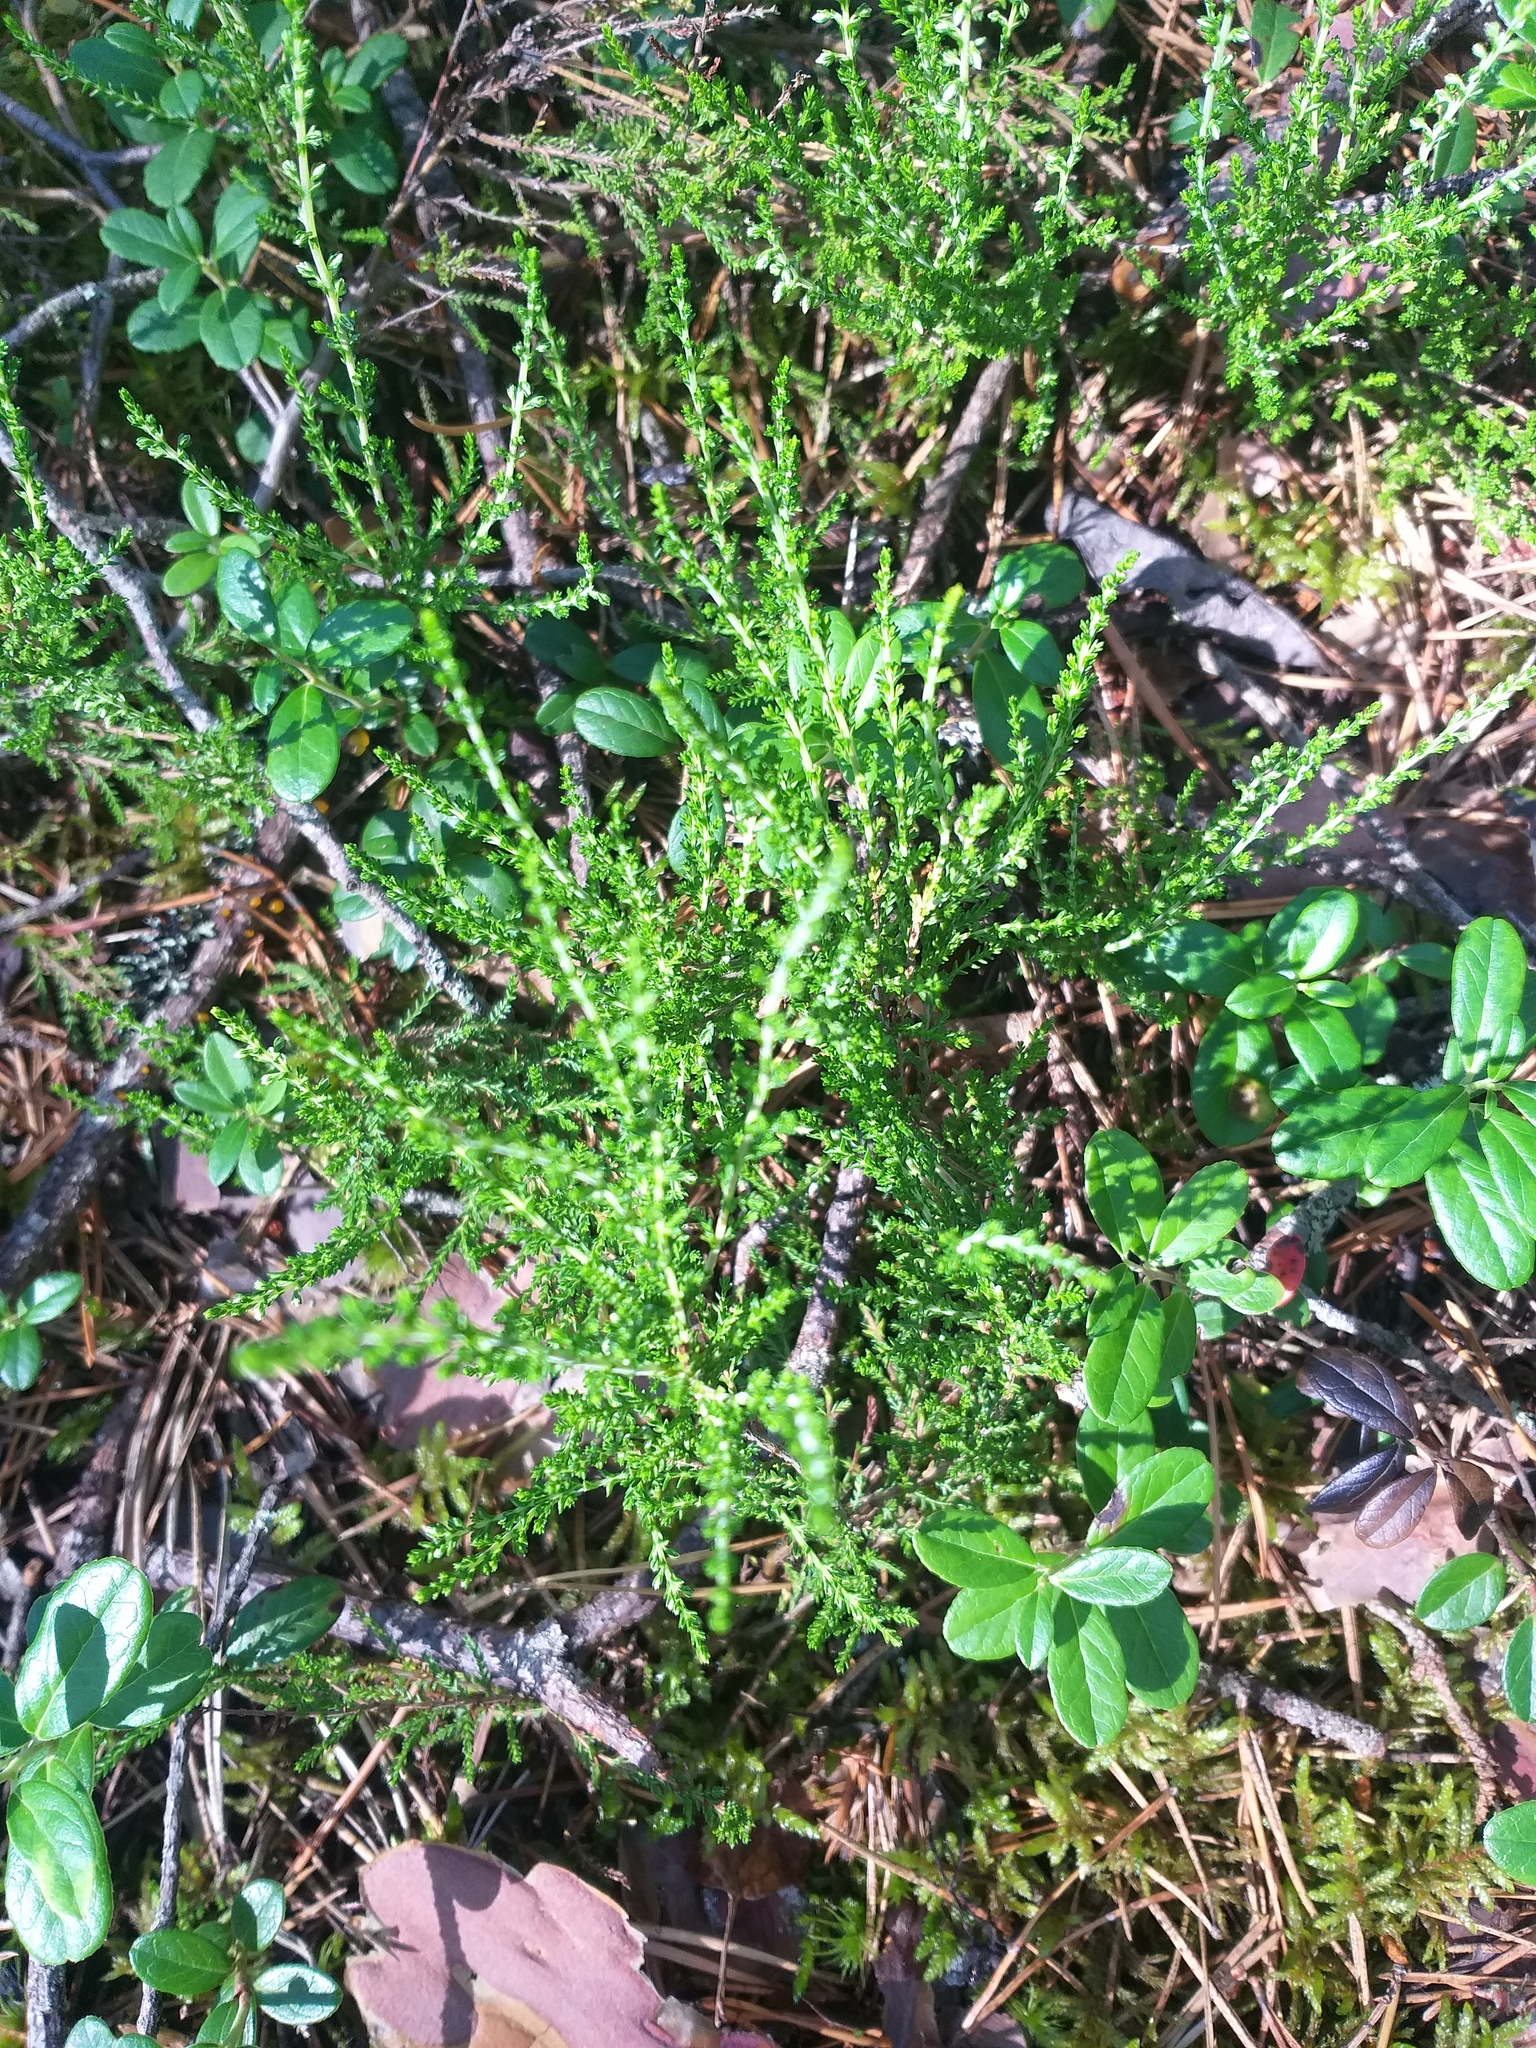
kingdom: Plantae
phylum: Tracheophyta
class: Magnoliopsida
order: Ericales
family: Ericaceae
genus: Calluna
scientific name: Calluna vulgaris
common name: Heather
